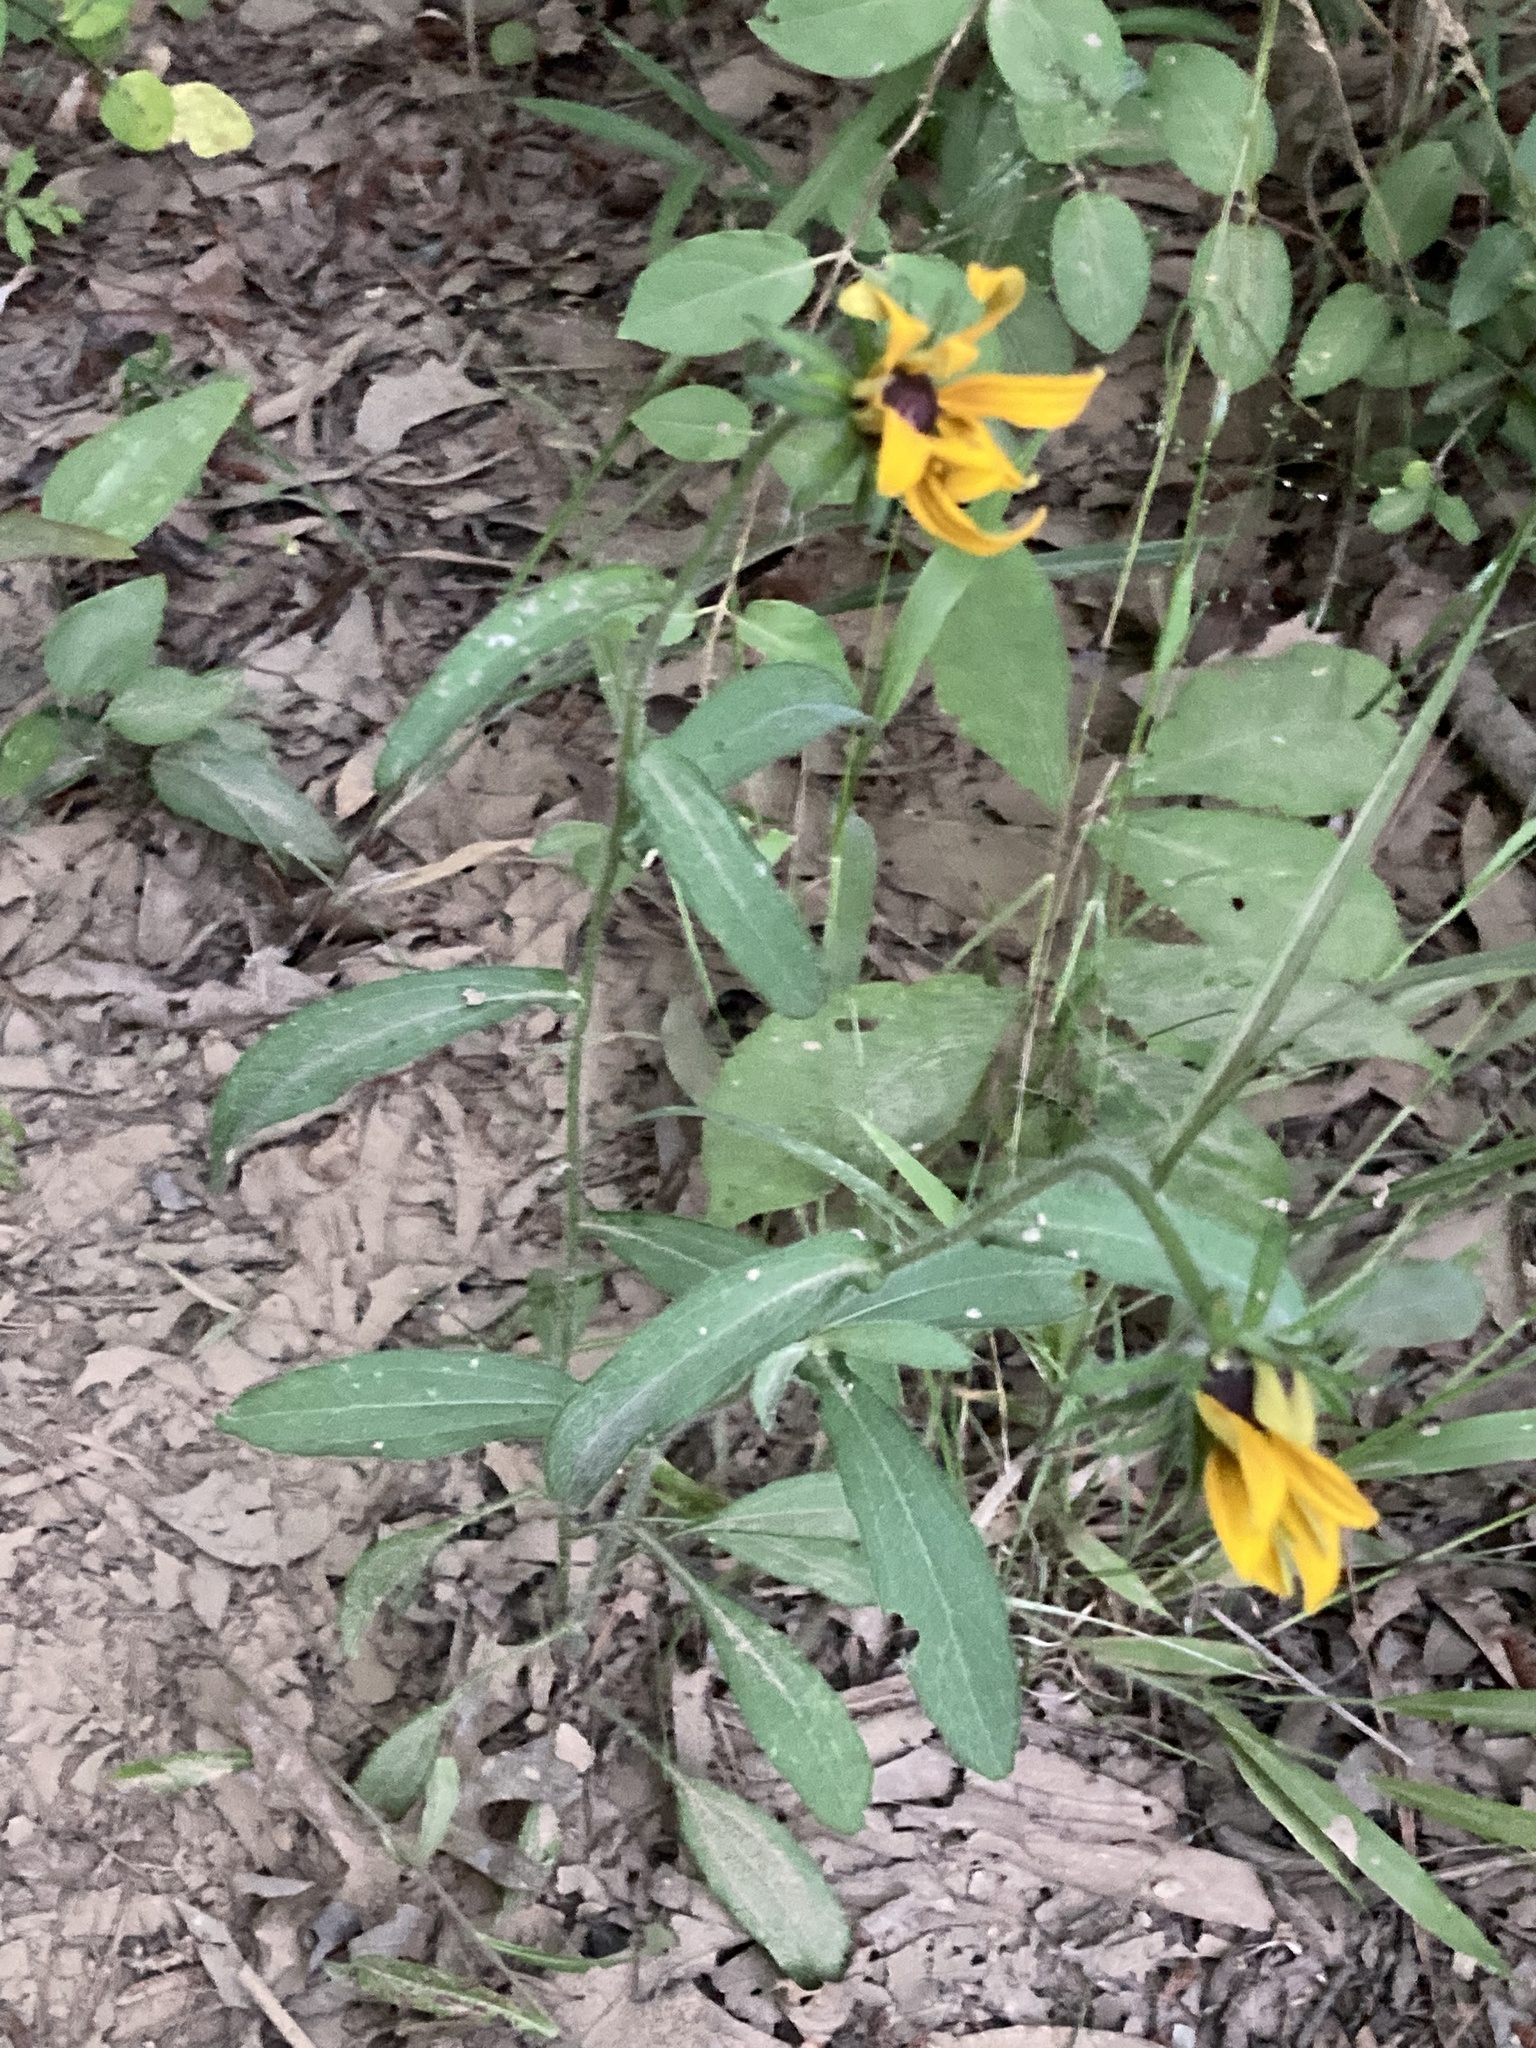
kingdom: Plantae
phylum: Tracheophyta
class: Magnoliopsida
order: Asterales
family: Asteraceae
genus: Rudbeckia
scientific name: Rudbeckia hirta
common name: Black-eyed-susan
